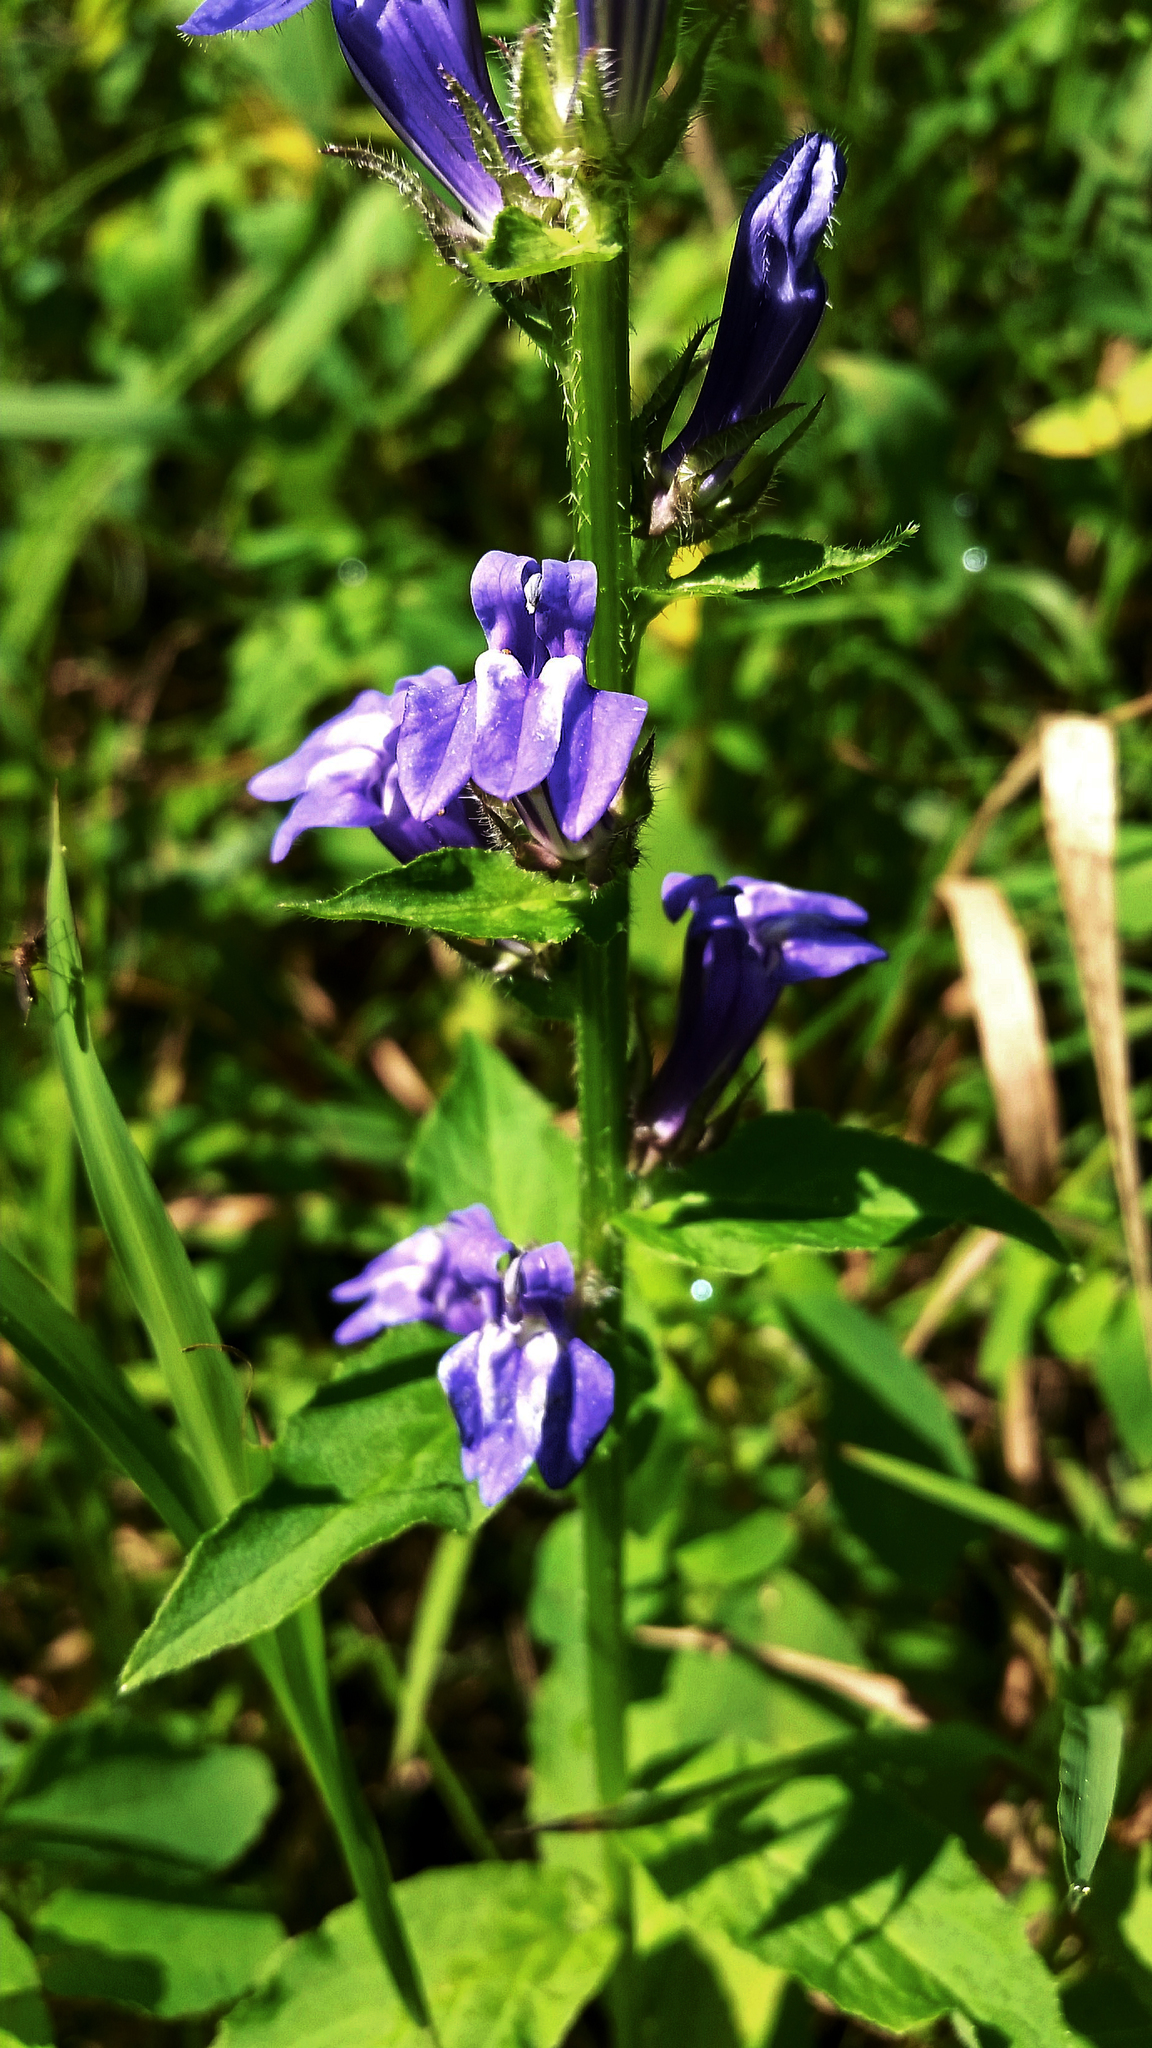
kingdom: Plantae
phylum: Tracheophyta
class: Magnoliopsida
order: Asterales
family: Campanulaceae
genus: Lobelia
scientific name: Lobelia siphilitica
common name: Great lobelia
